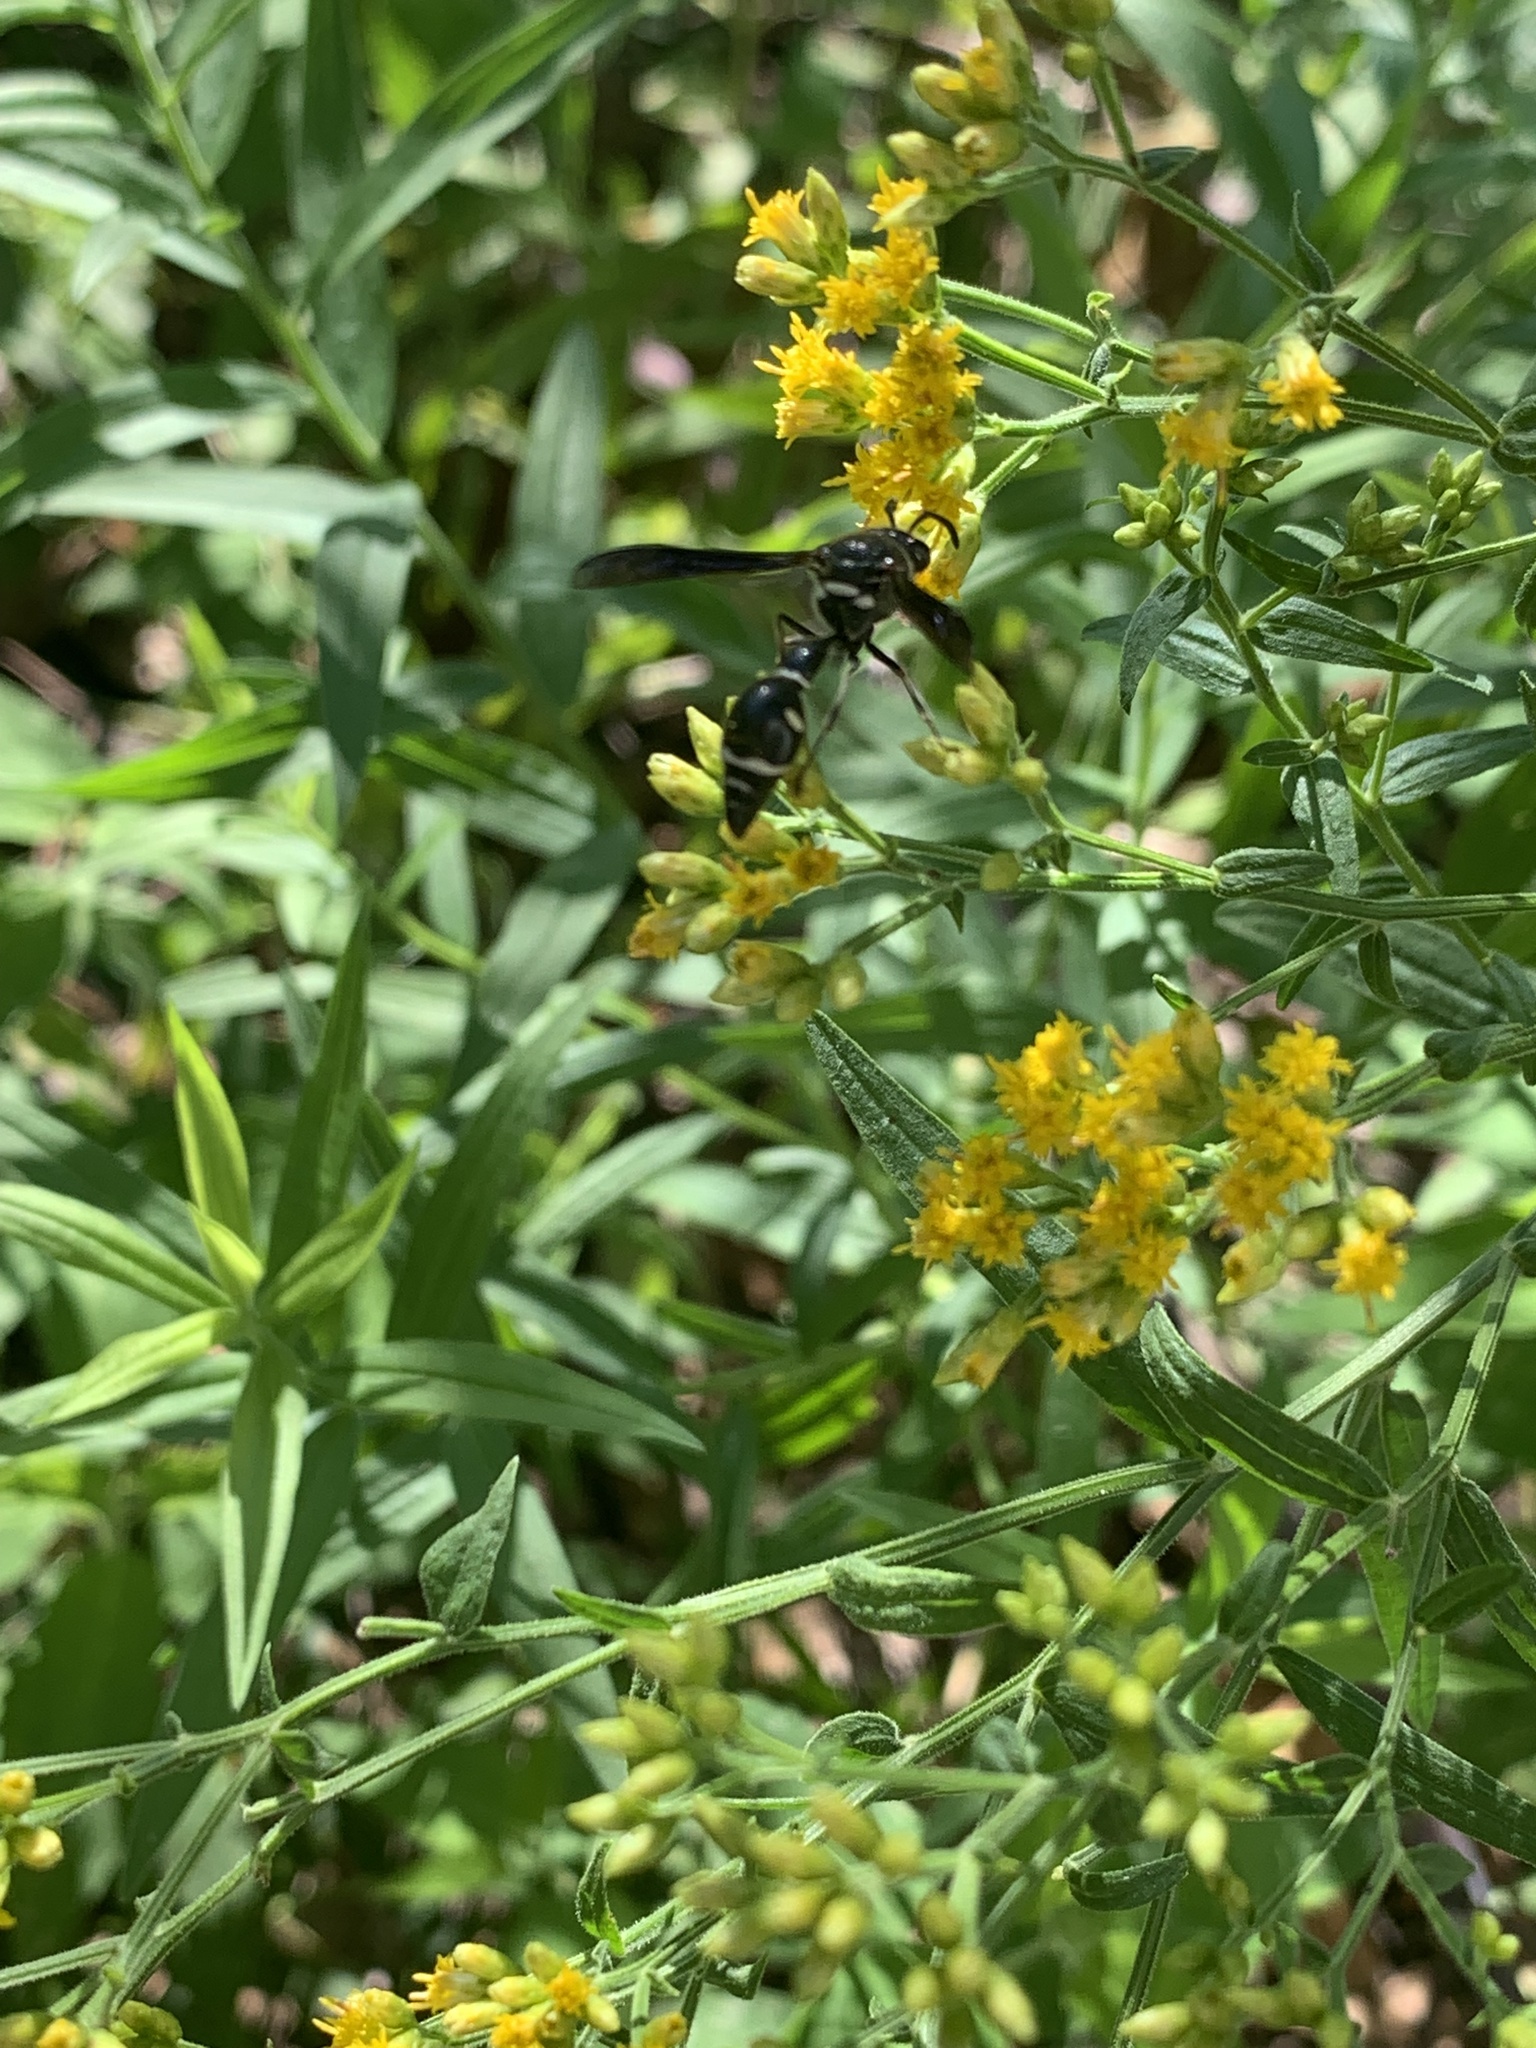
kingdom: Animalia
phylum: Arthropoda
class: Insecta
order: Hymenoptera
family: Vespidae
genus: Eumenes
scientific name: Eumenes fraternus
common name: Fraternal potter wasp
